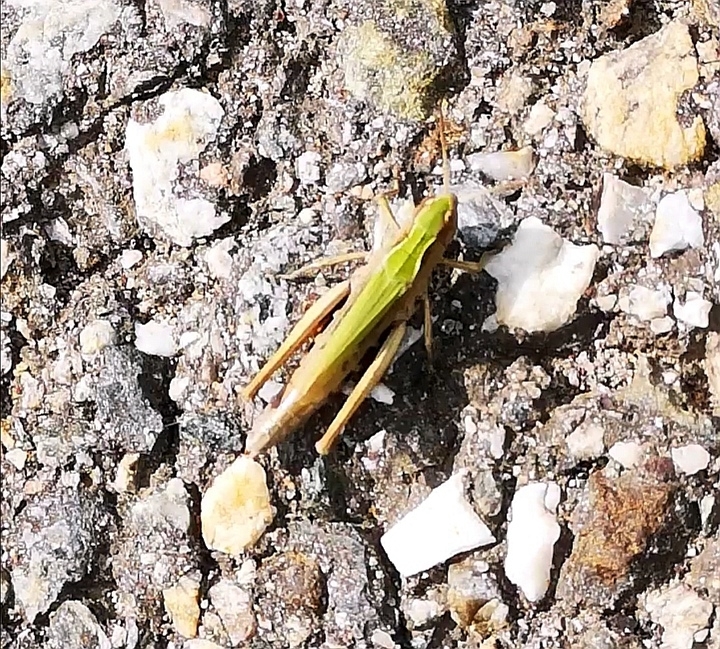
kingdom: Animalia
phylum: Arthropoda
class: Insecta
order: Orthoptera
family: Acrididae
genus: Omocestus
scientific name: Omocestus viridulus
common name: Common green grasshopper
